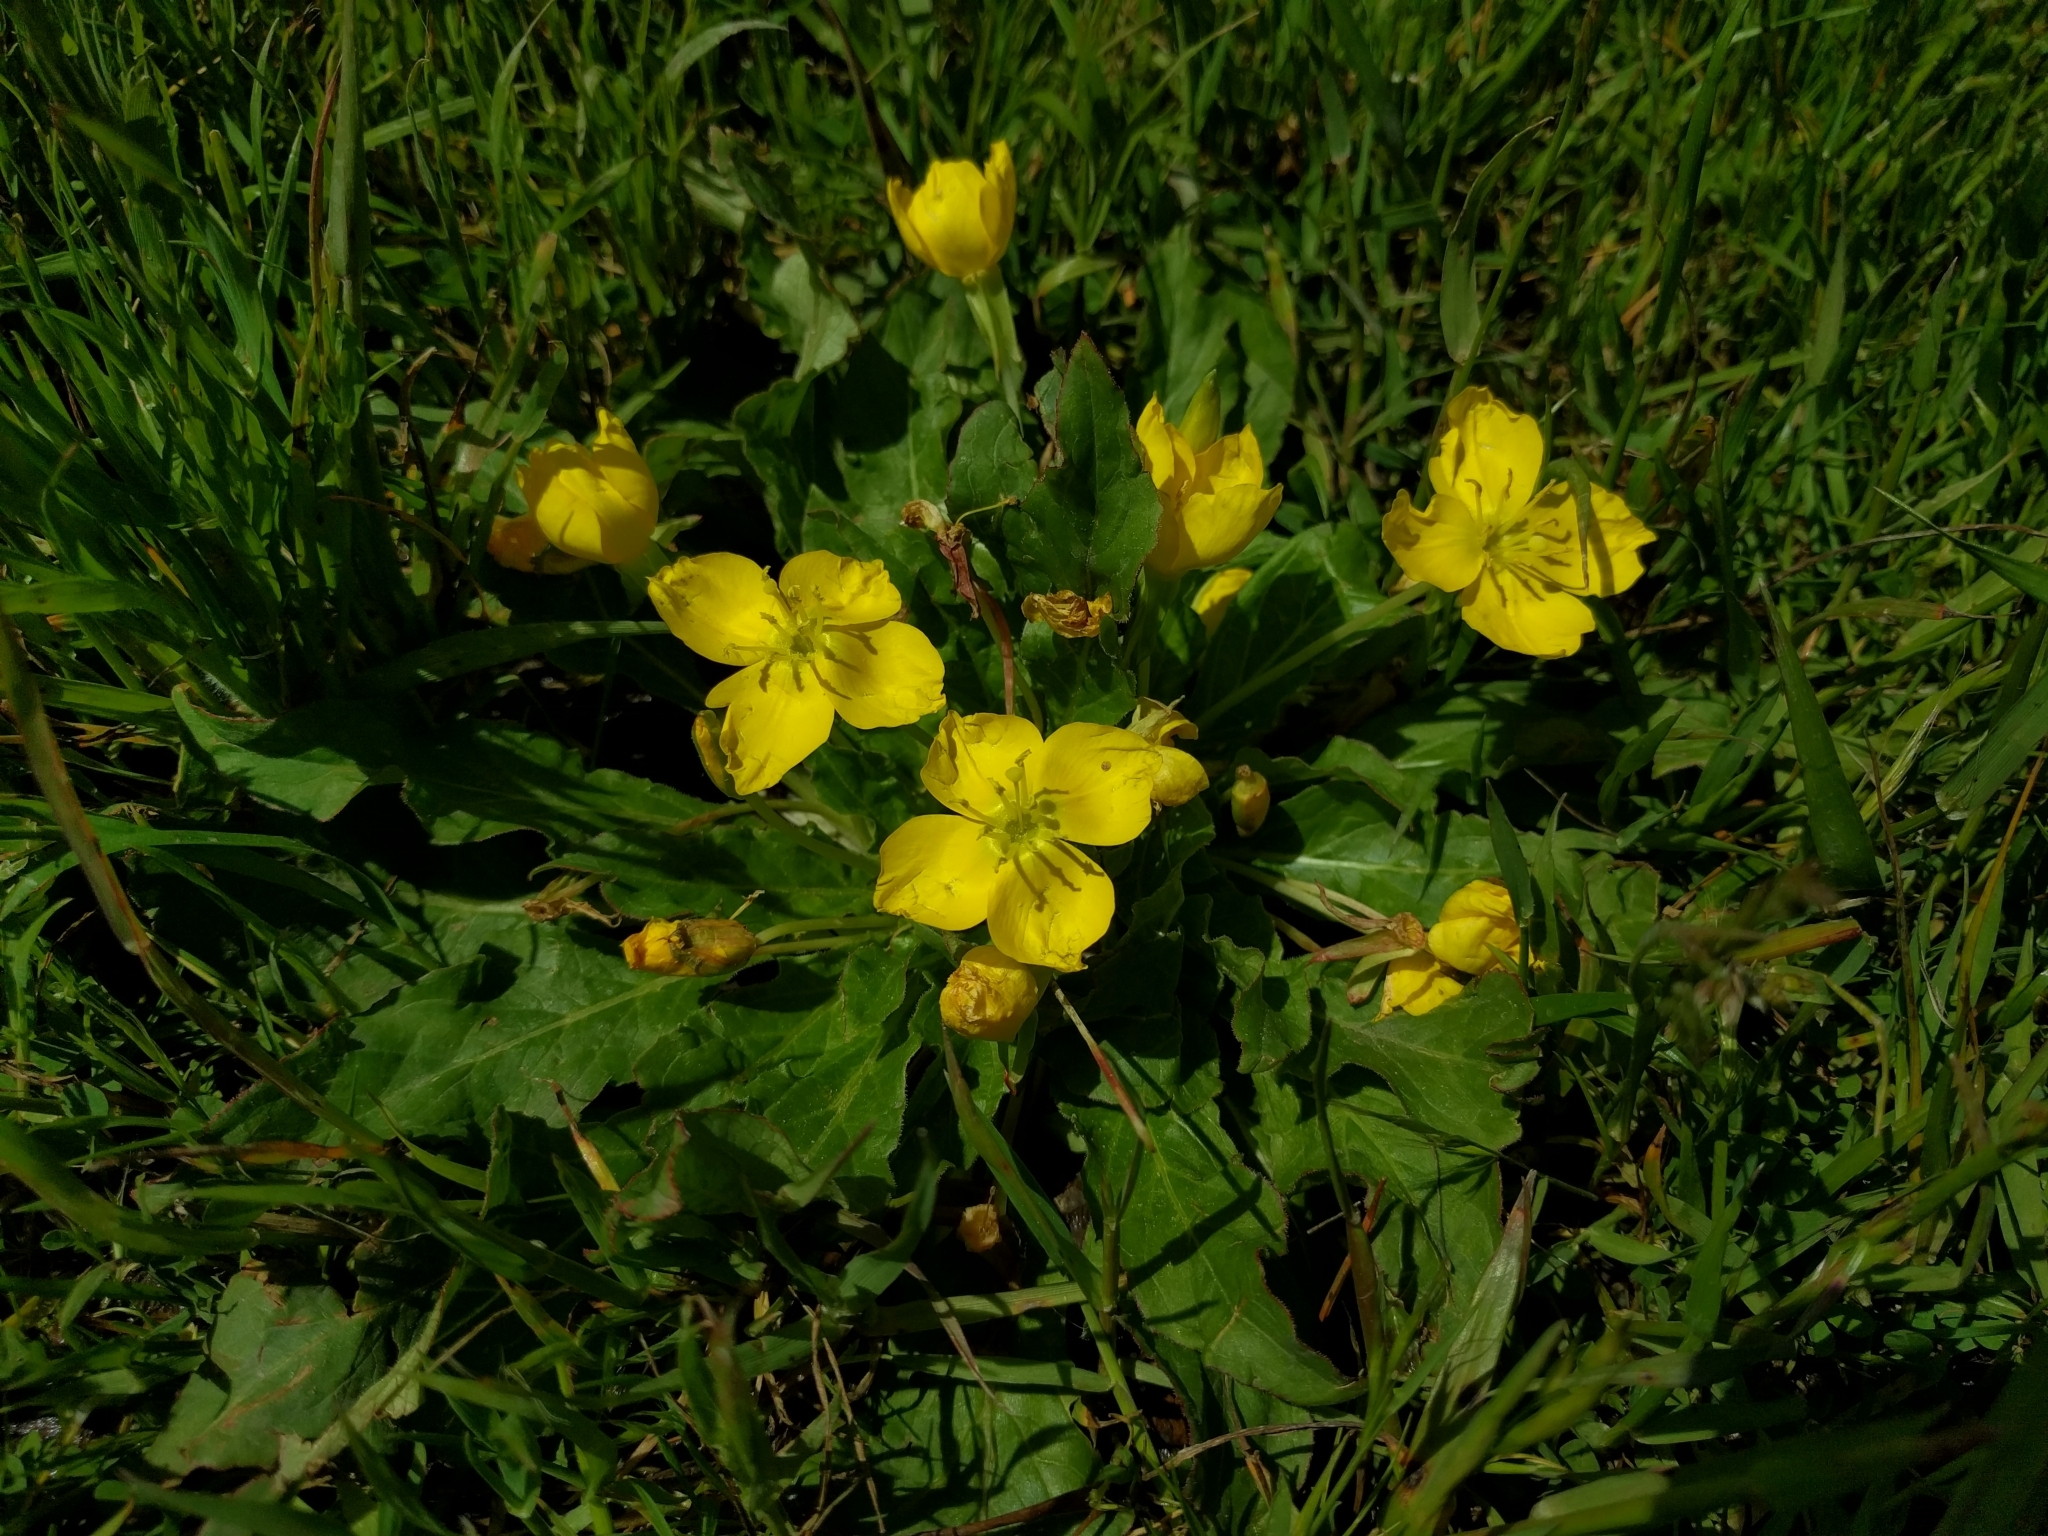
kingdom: Plantae
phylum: Tracheophyta
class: Magnoliopsida
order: Myrtales
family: Onagraceae
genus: Taraxia
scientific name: Taraxia ovata
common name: Goldeneggs
